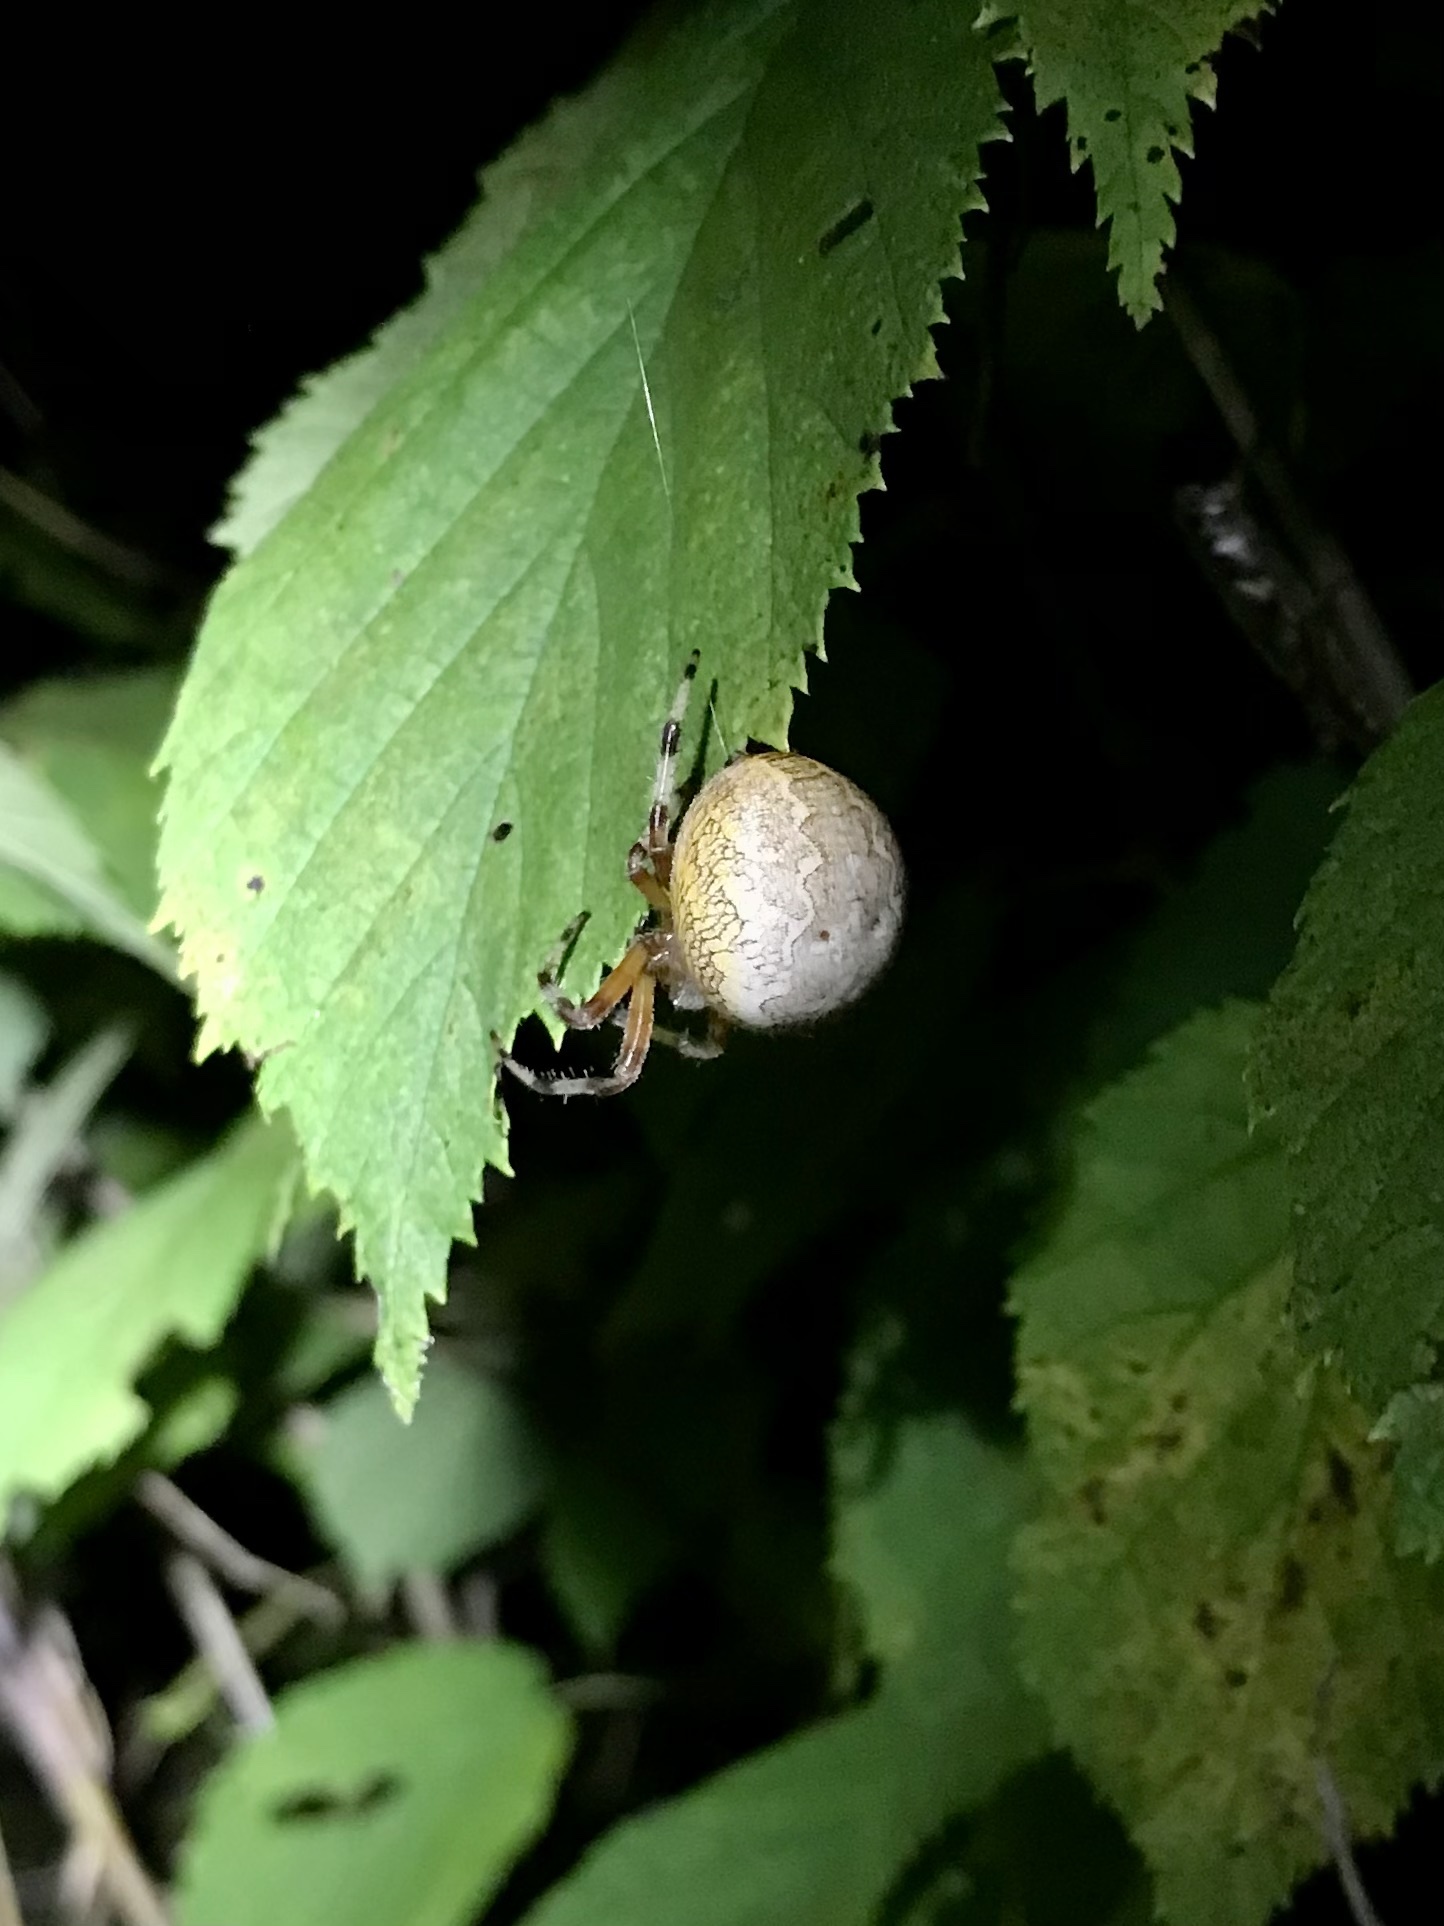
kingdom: Animalia
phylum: Arthropoda
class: Arachnida
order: Araneae
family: Araneidae
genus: Araneus
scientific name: Araneus marmoreus
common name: Marbled orbweaver
